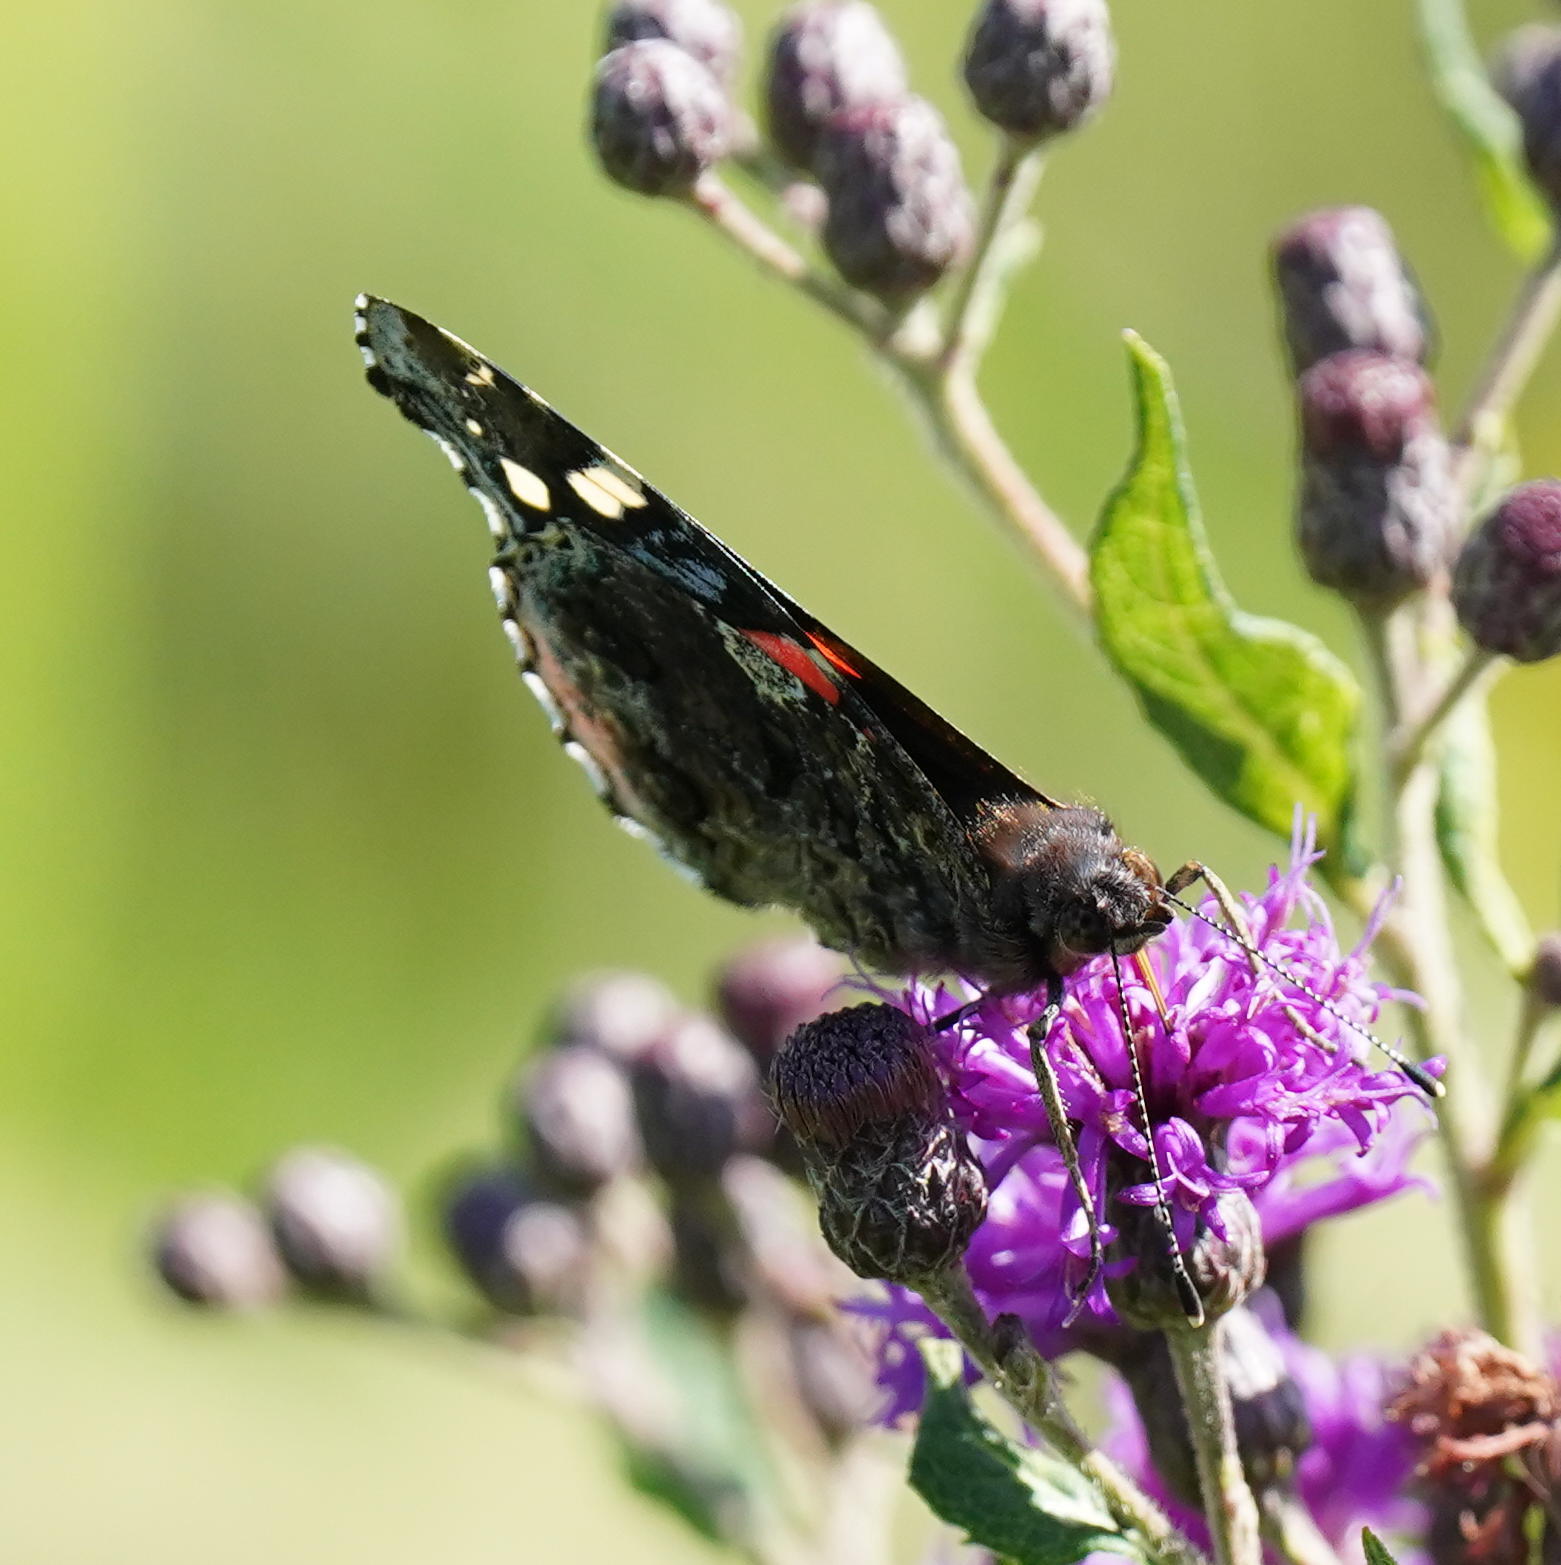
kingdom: Animalia
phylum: Arthropoda
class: Insecta
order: Lepidoptera
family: Nymphalidae
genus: Vanessa
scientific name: Vanessa atalanta
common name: Red admiral
